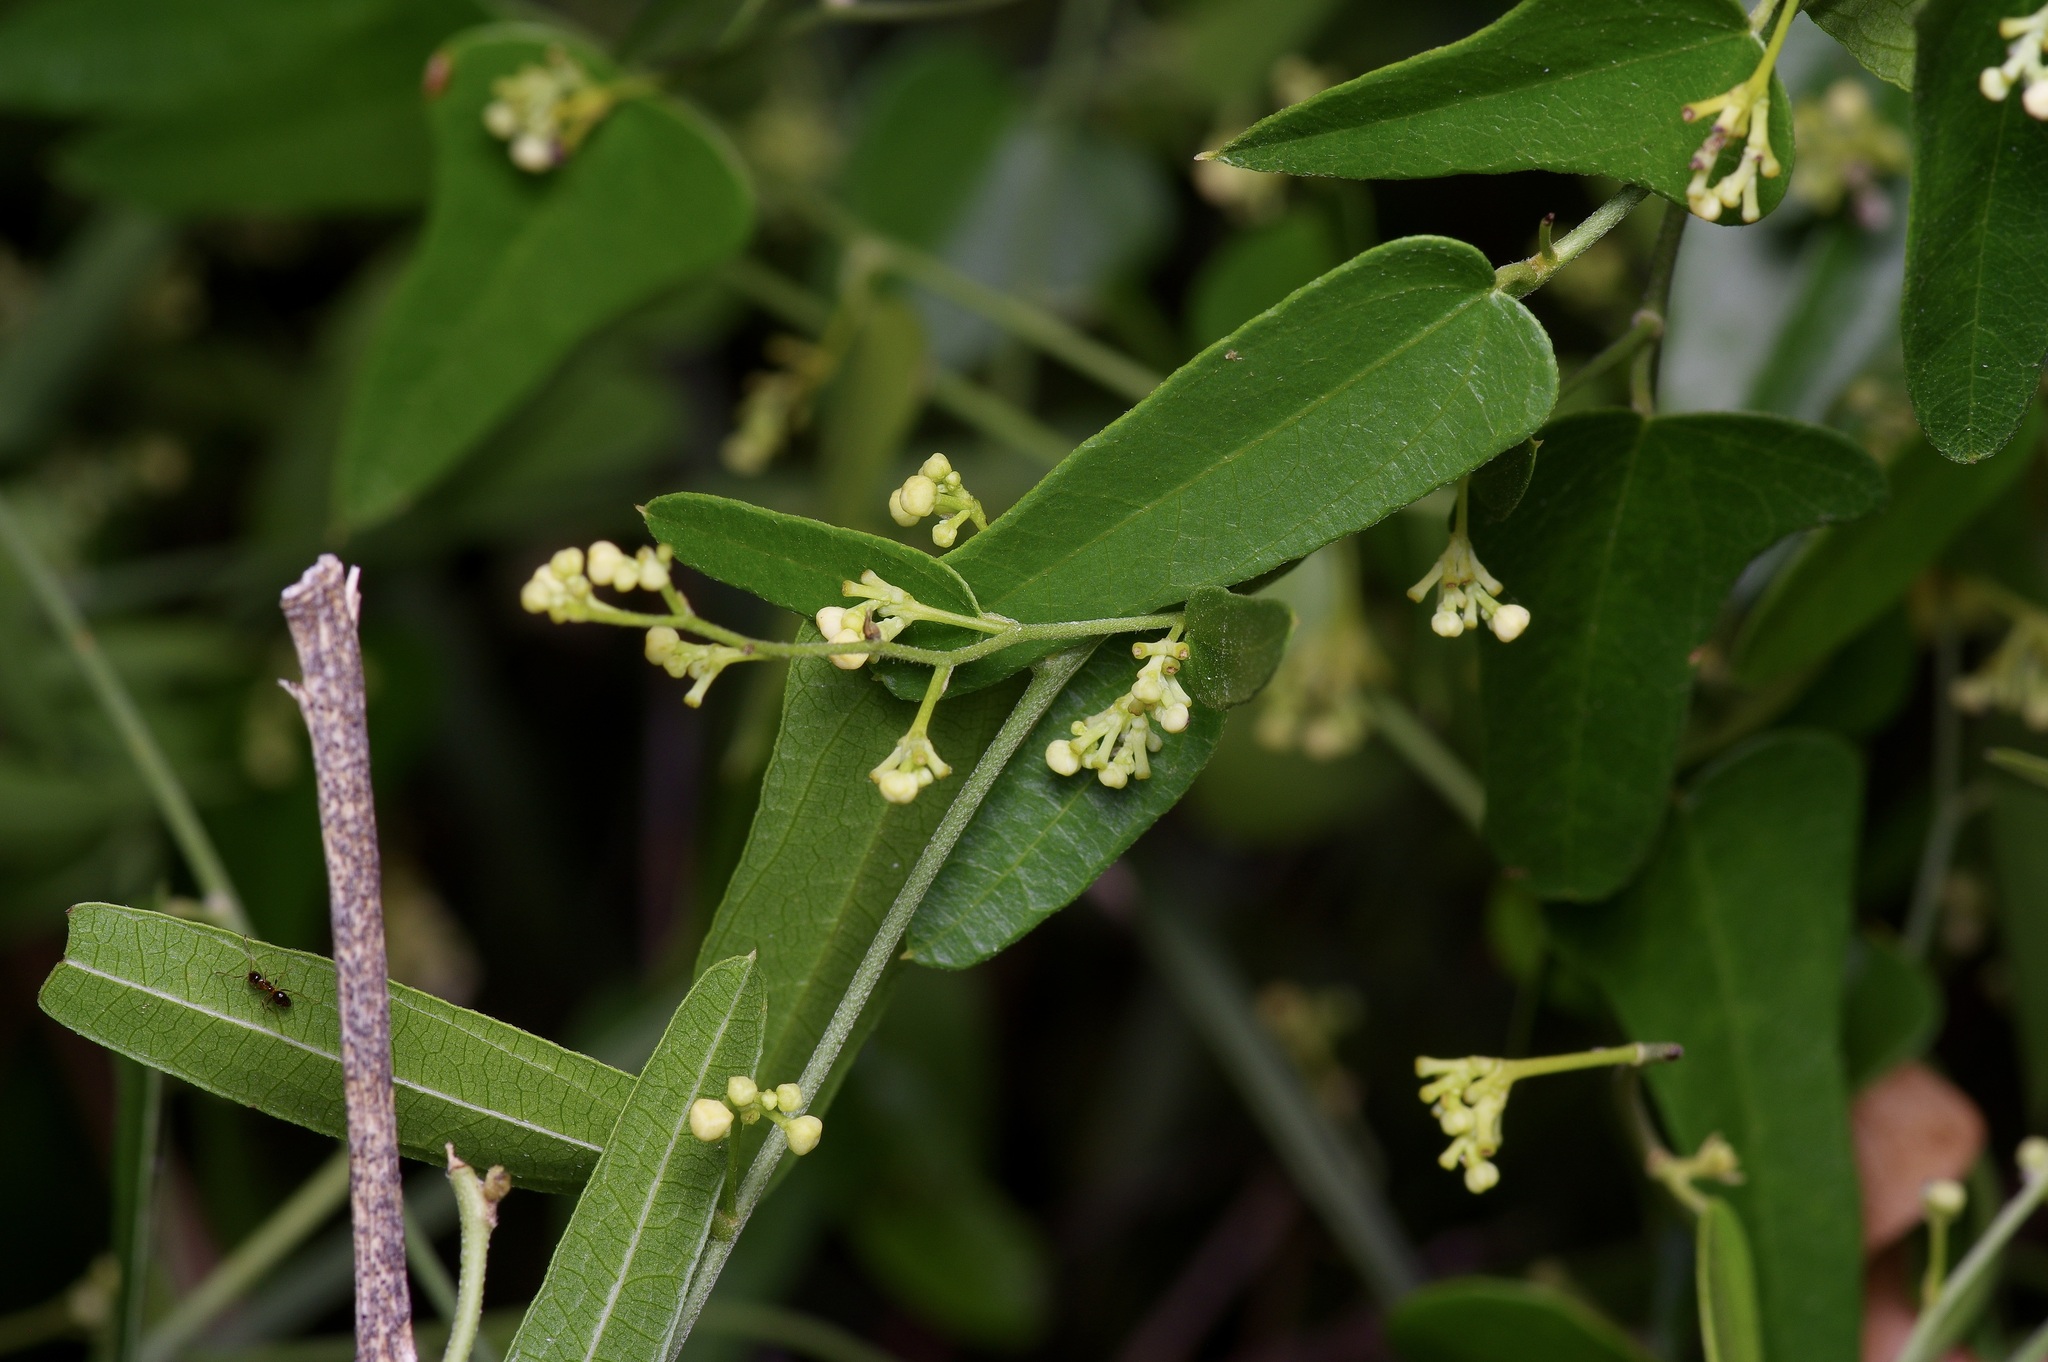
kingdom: Plantae
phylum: Tracheophyta
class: Magnoliopsida
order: Ranunculales
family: Menispermaceae
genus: Cocculus
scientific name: Cocculus carolinus
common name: Carolina moonseed
